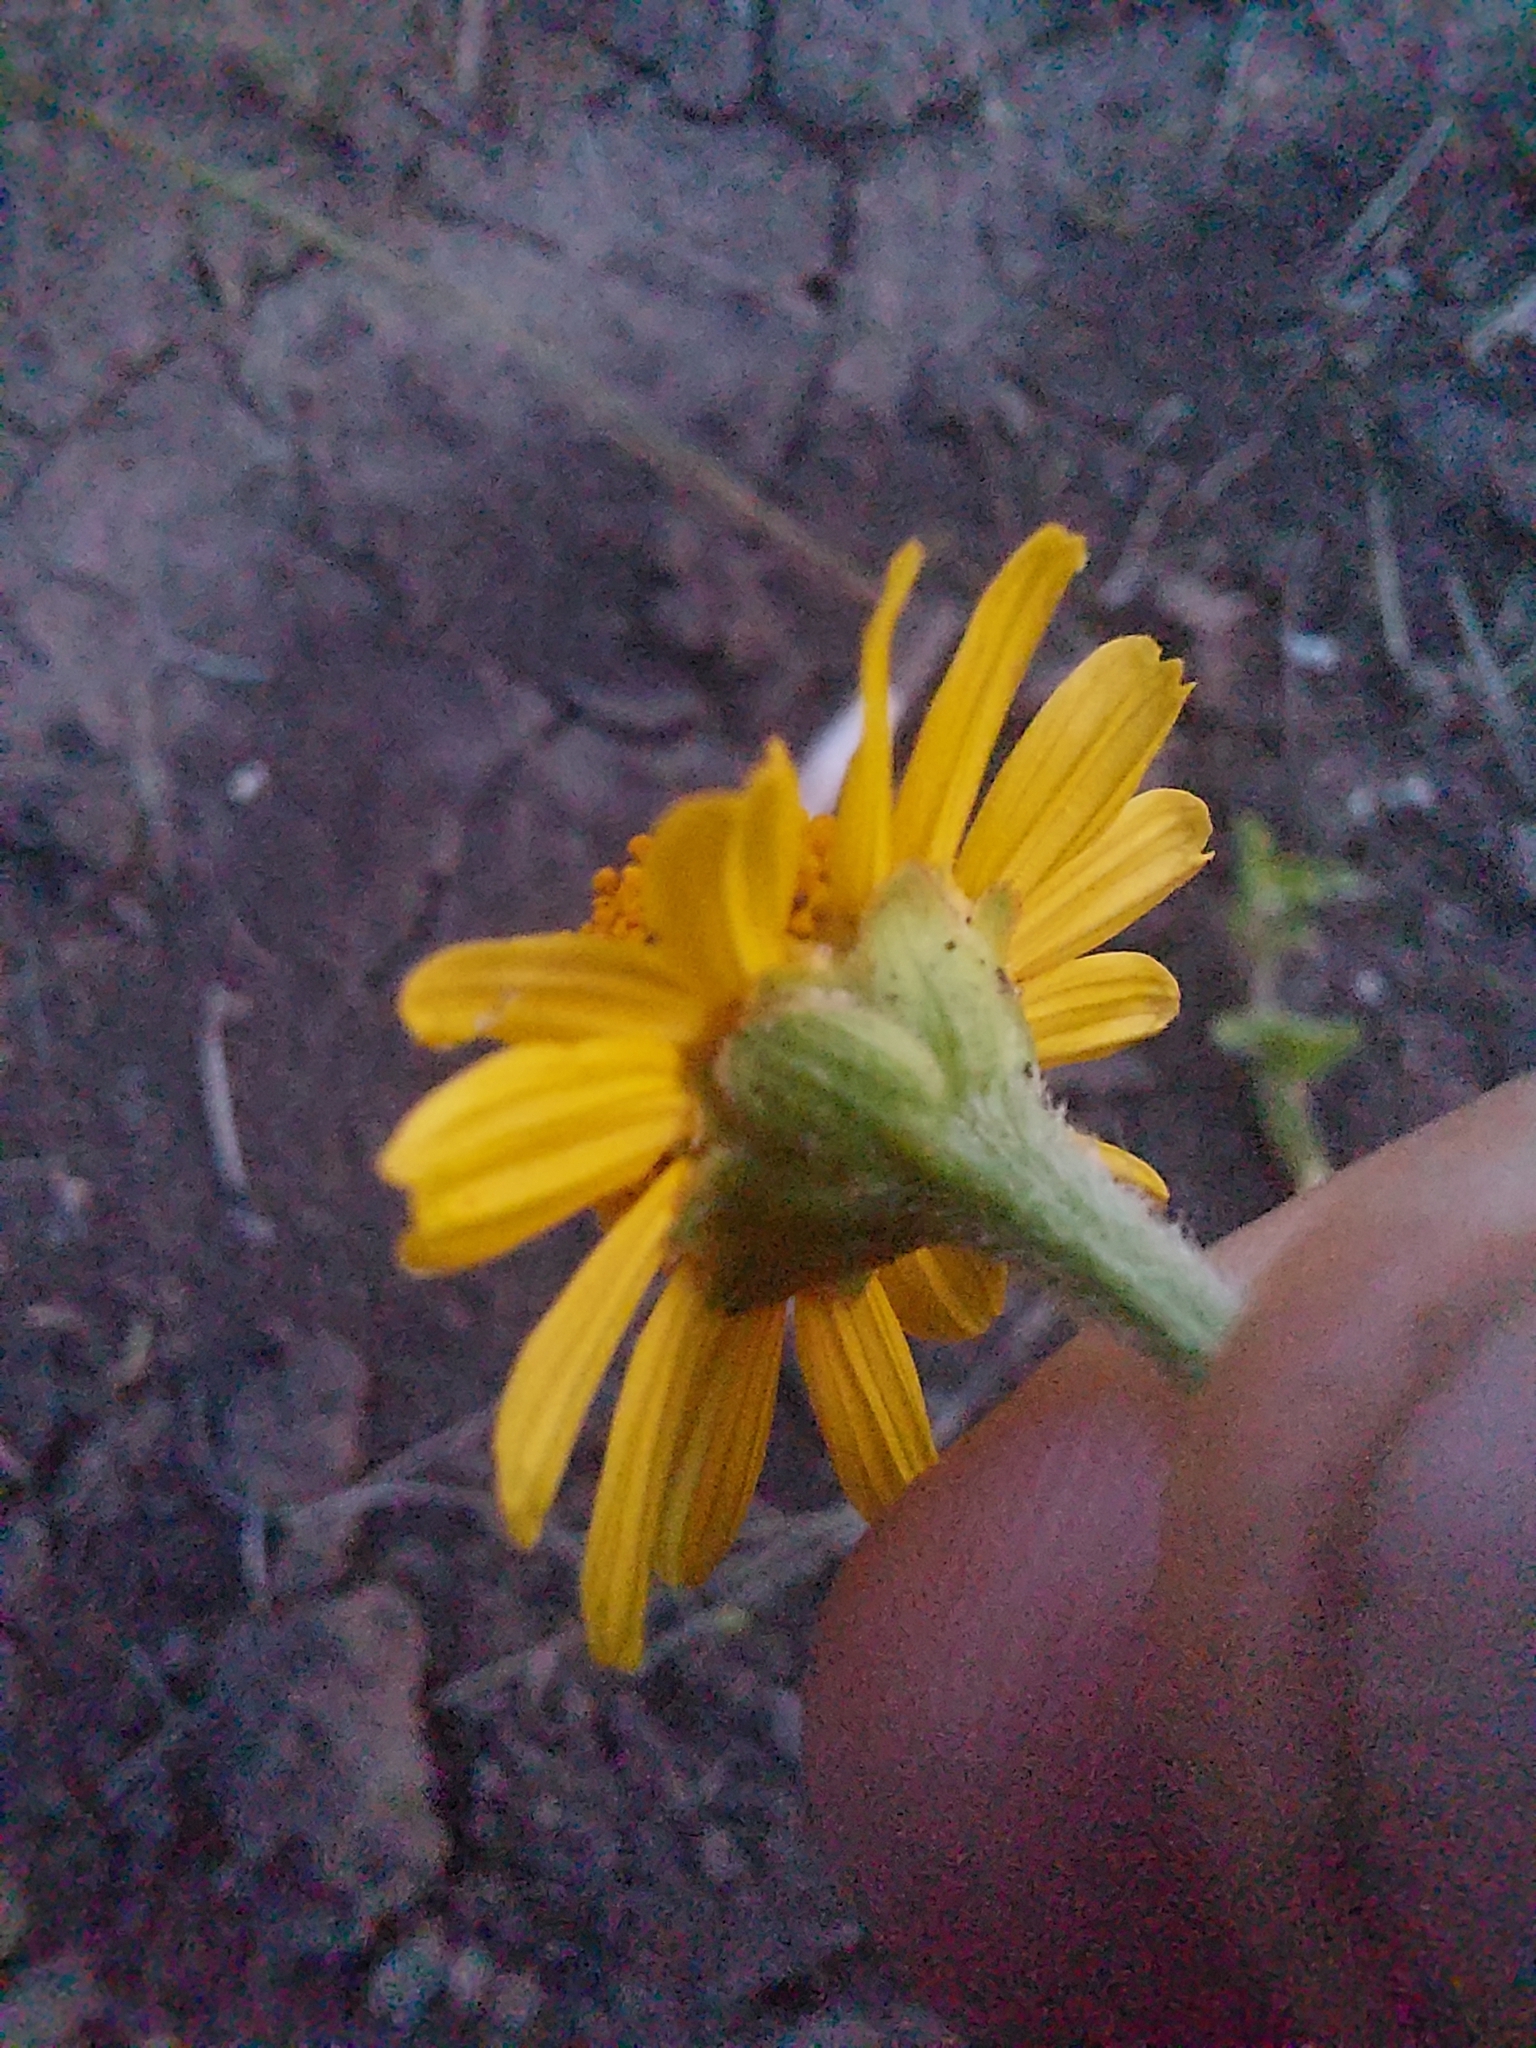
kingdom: Plantae
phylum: Tracheophyta
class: Magnoliopsida
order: Asterales
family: Asteraceae
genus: Acmella
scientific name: Acmella grisea
